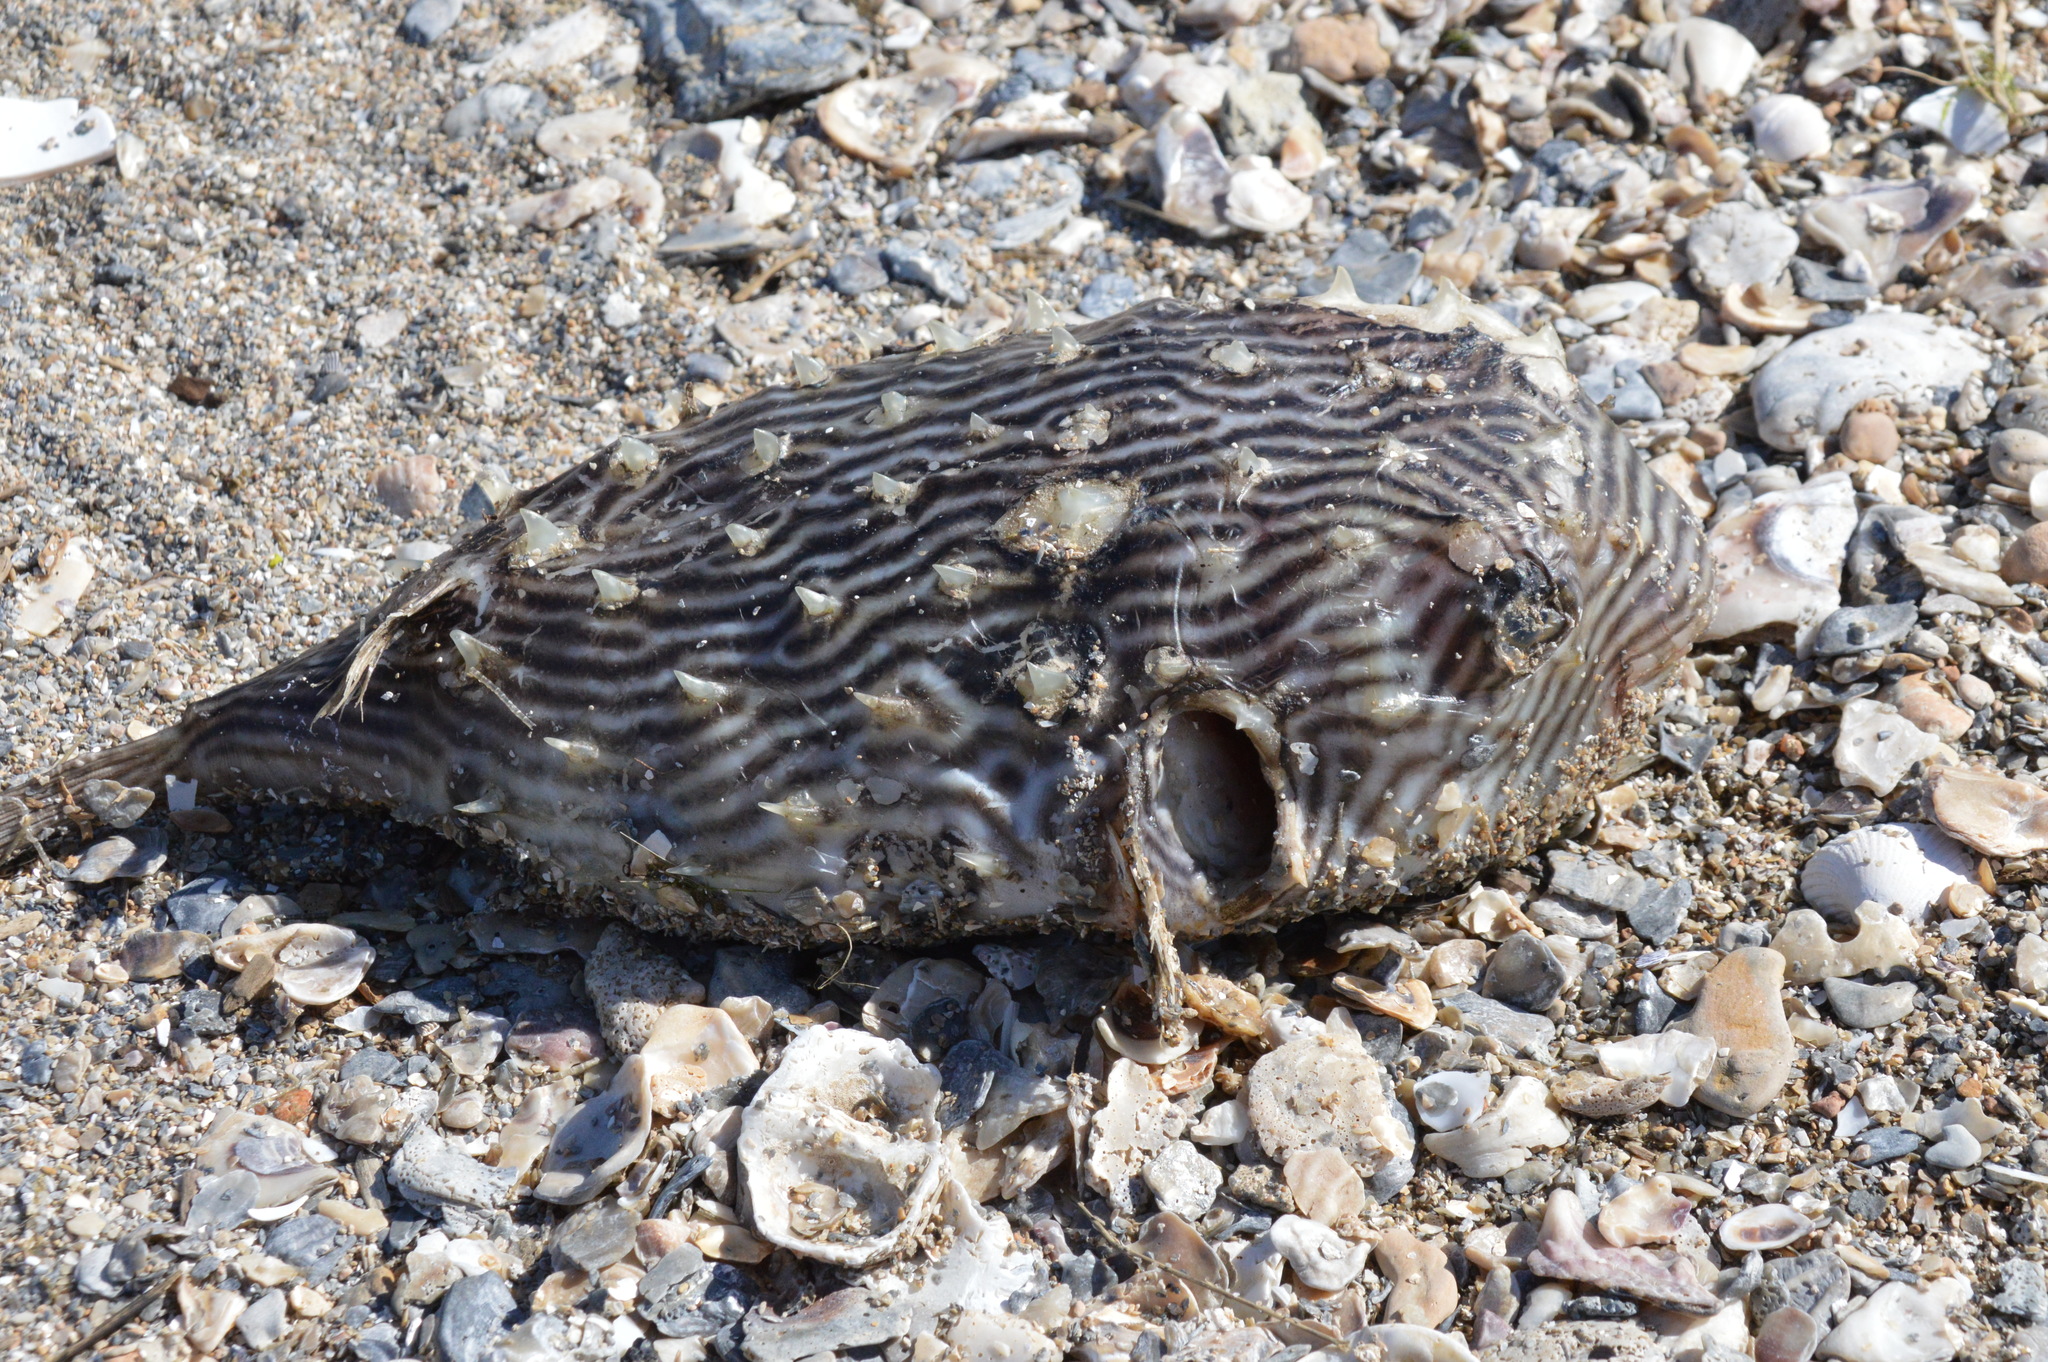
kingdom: Animalia
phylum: Chordata
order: Tetraodontiformes
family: Diodontidae
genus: Chilomycterus
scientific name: Chilomycterus schoepfii
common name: Striped burrfish
